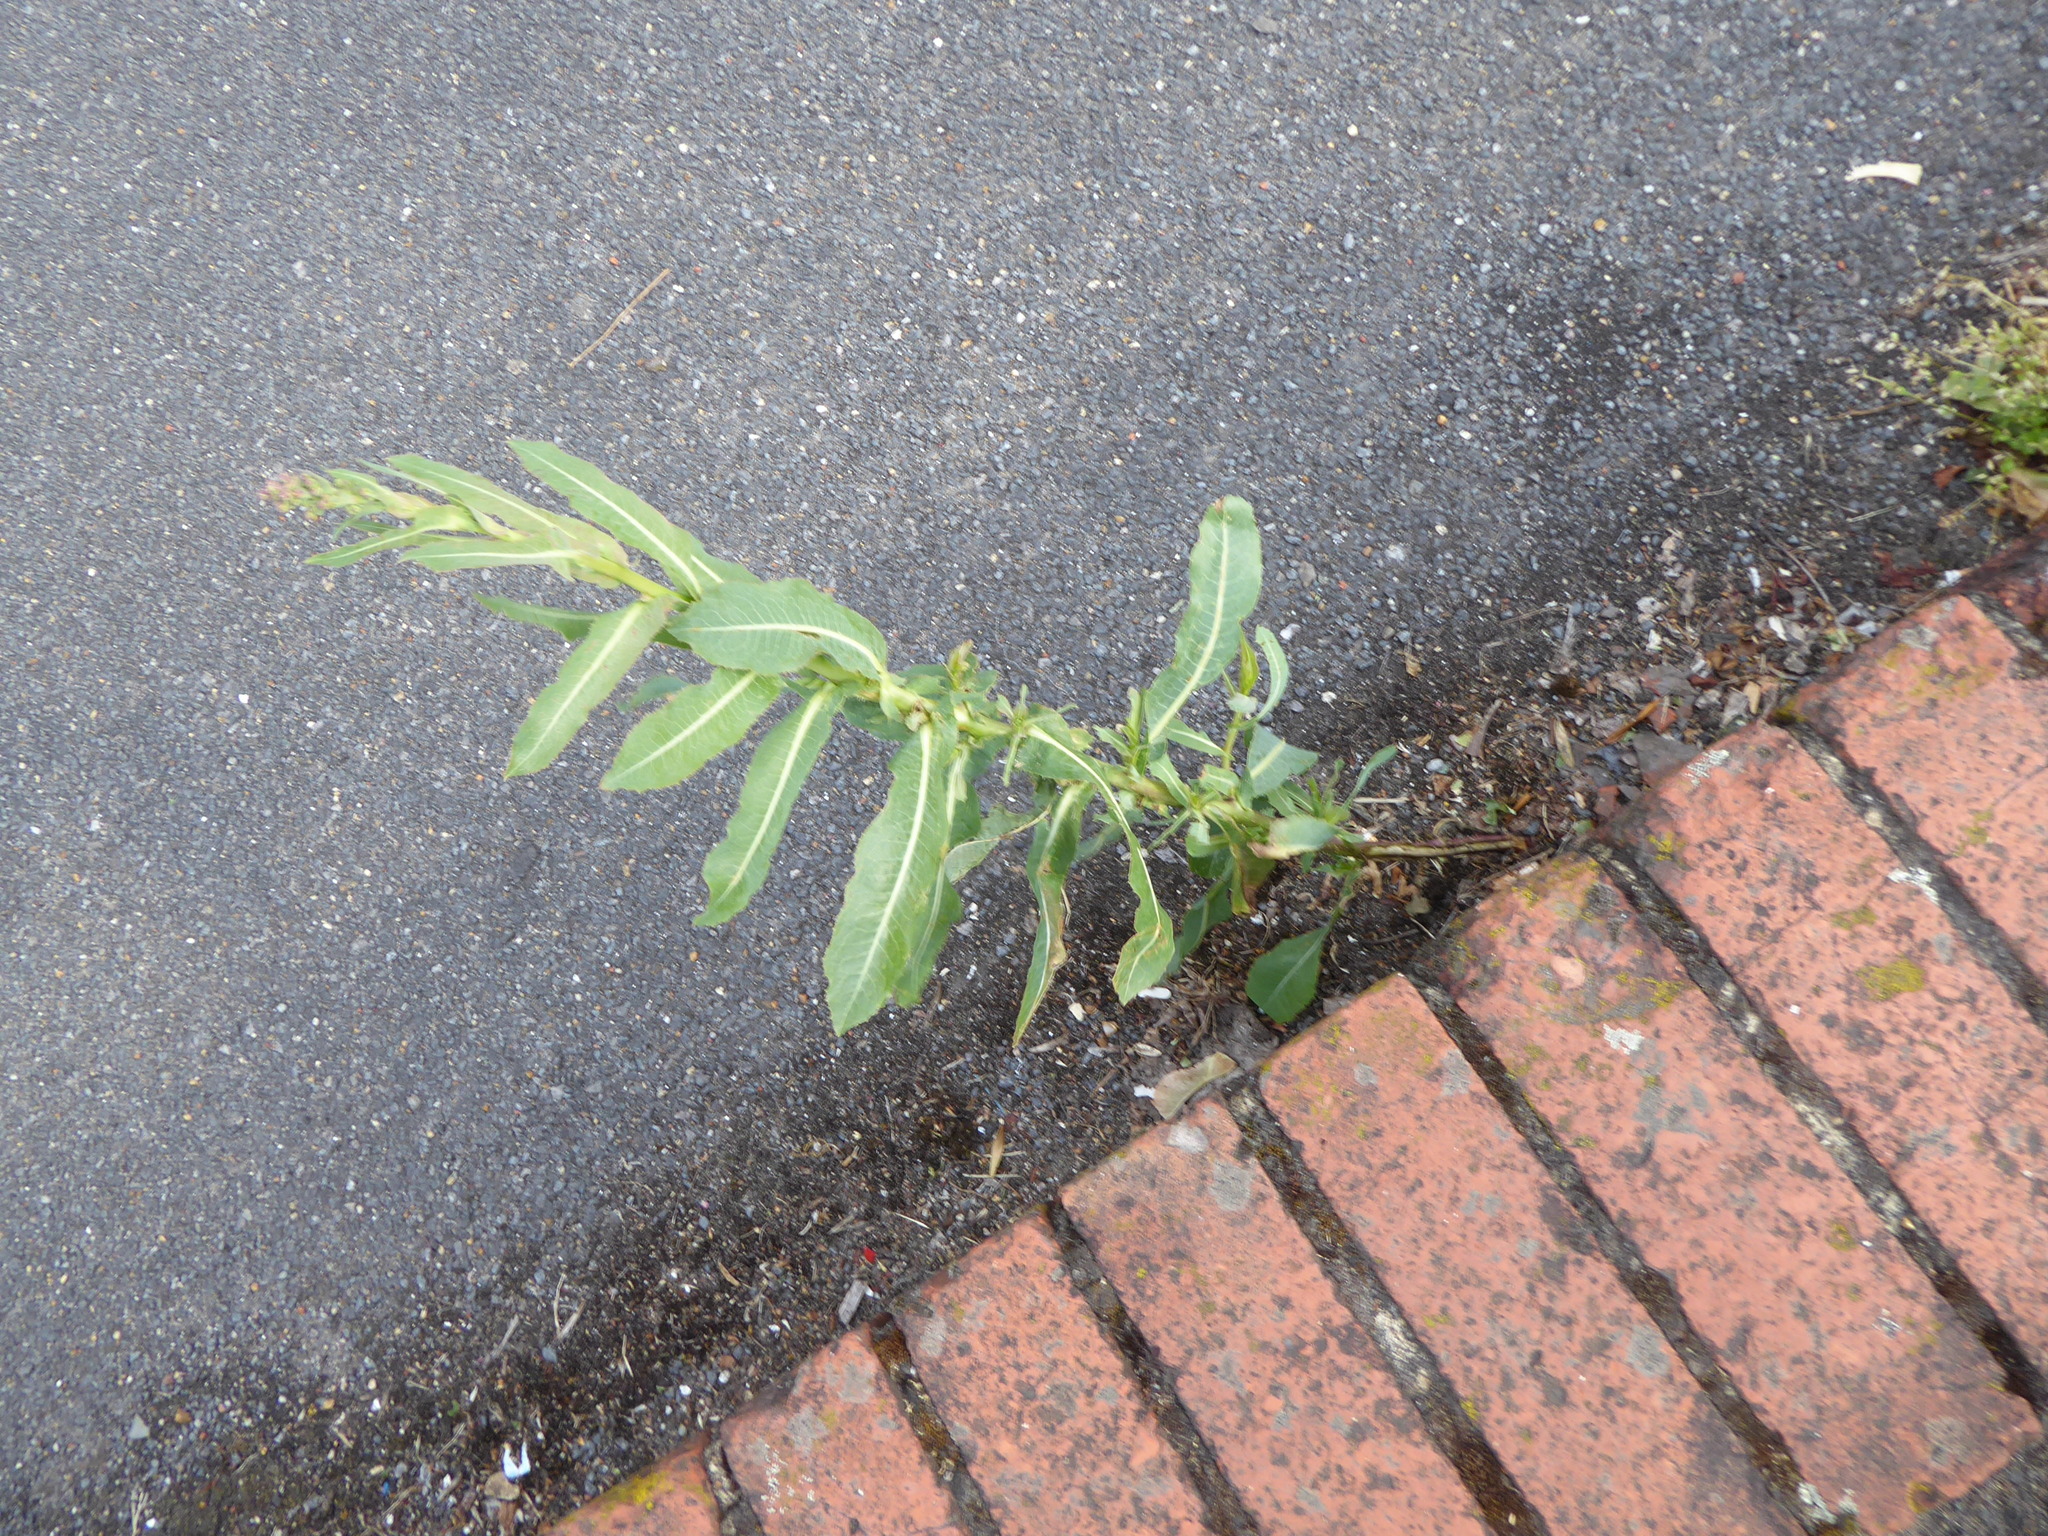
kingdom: Plantae
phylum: Tracheophyta
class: Magnoliopsida
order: Asterales
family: Asteraceae
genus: Lactuca
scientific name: Lactuca serriola
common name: Prickly lettuce
